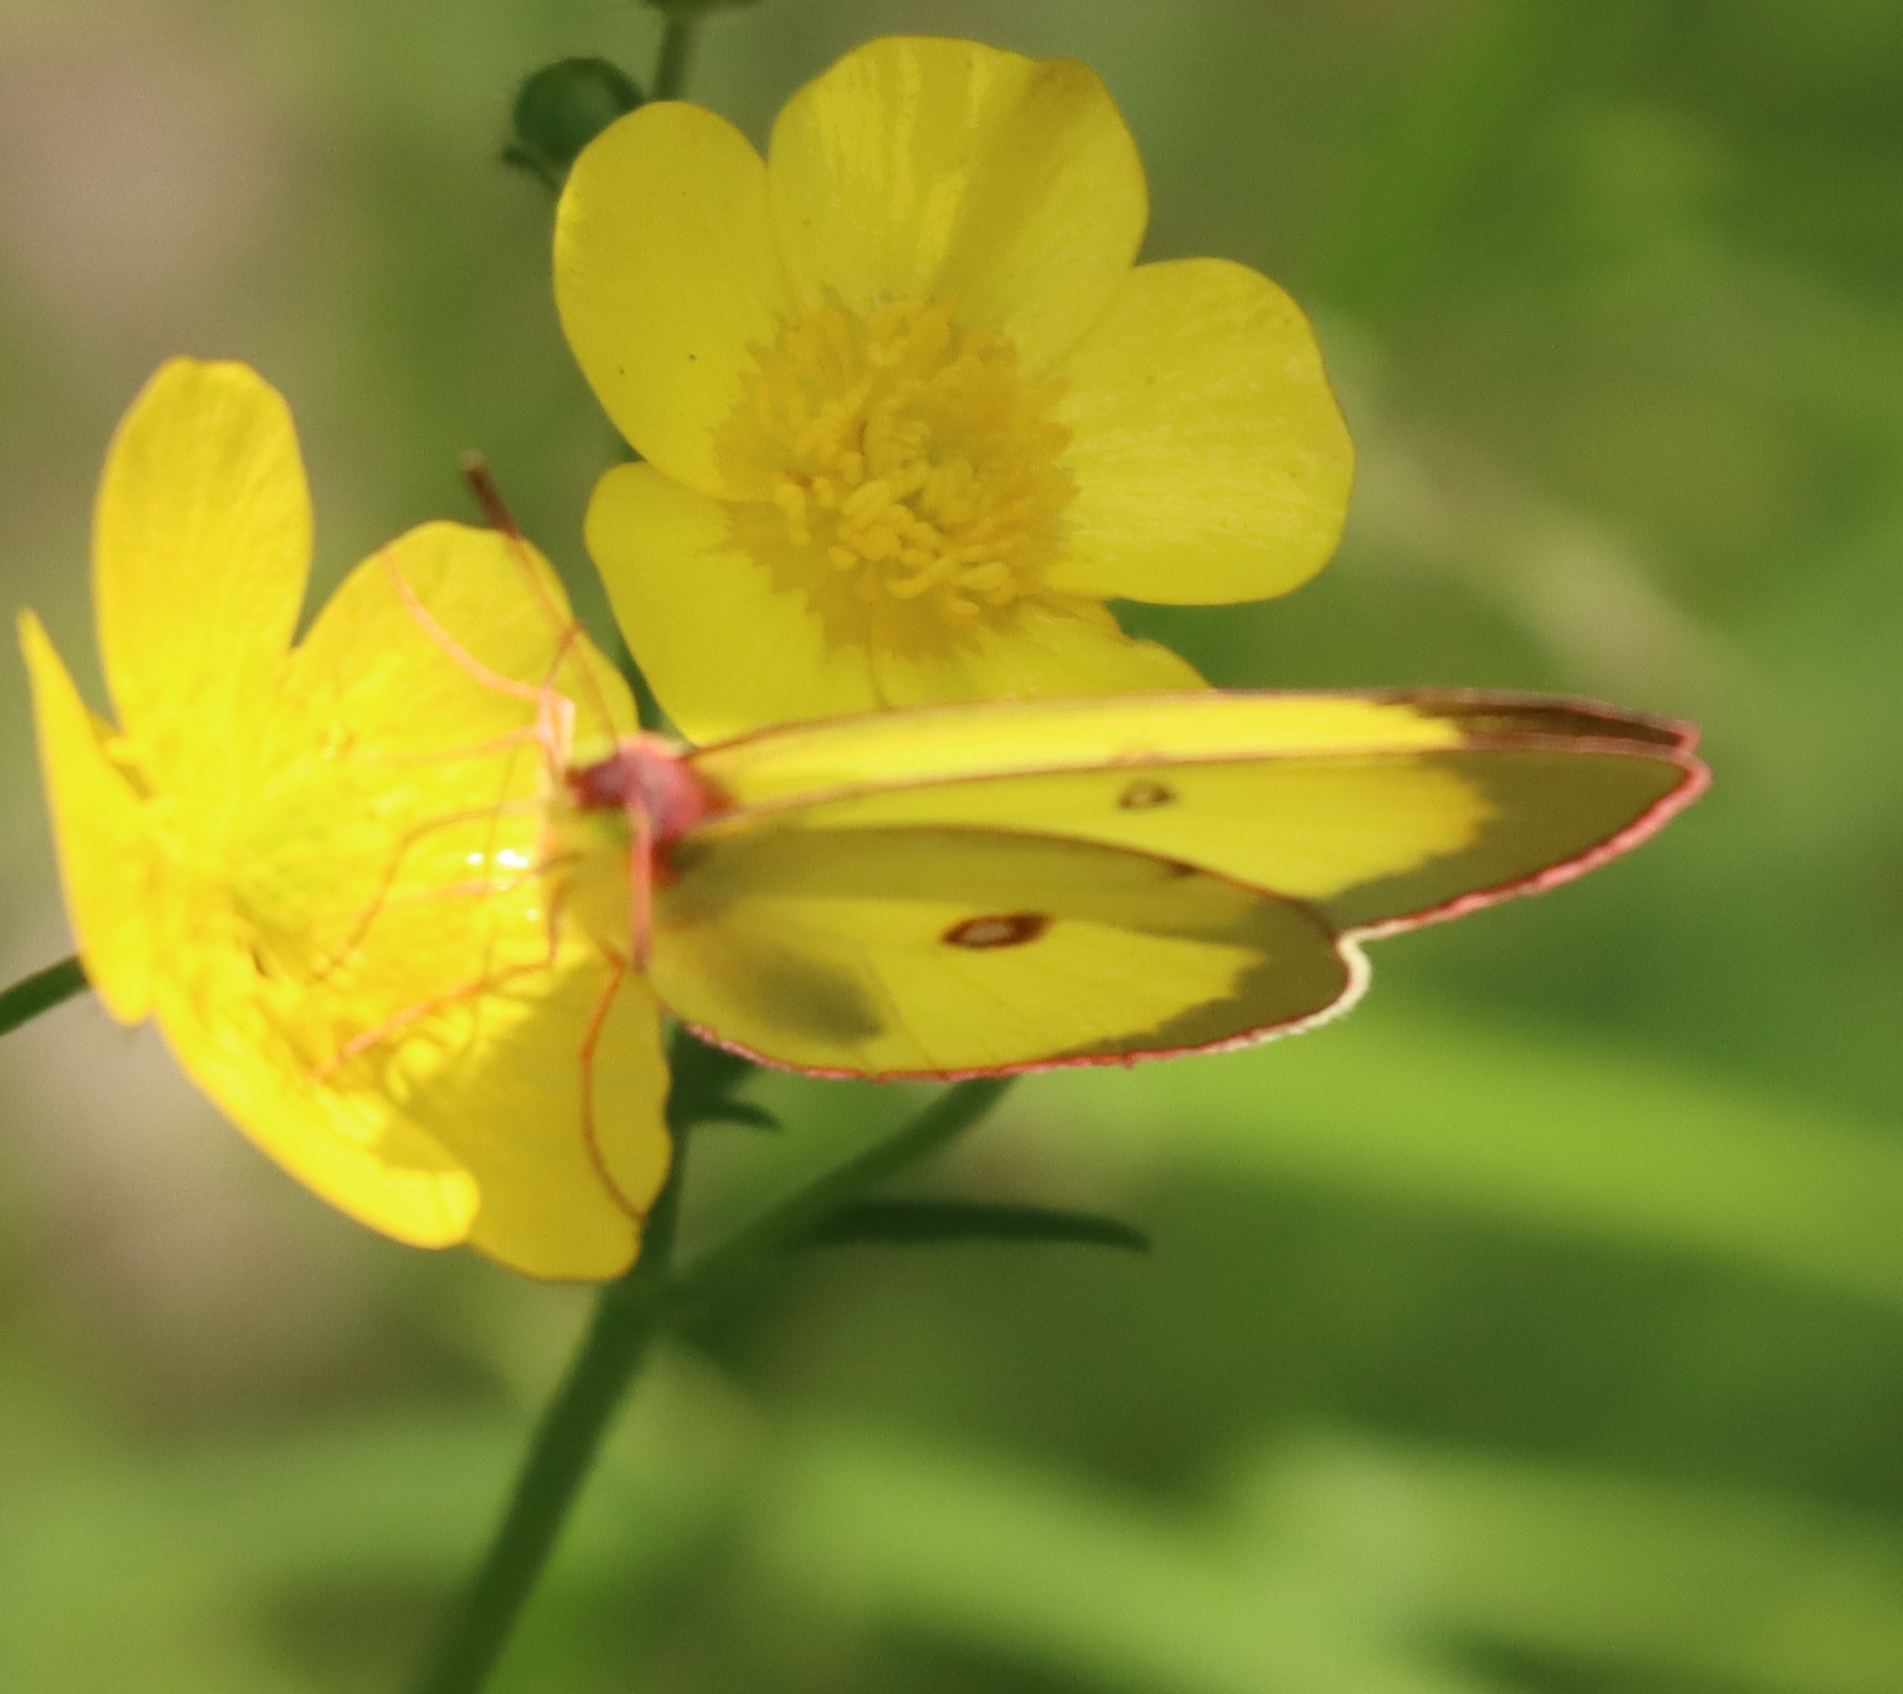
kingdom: Animalia
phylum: Arthropoda
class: Insecta
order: Lepidoptera
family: Pieridae
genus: Colias
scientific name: Colias interior
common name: Pink-edged sulphur
